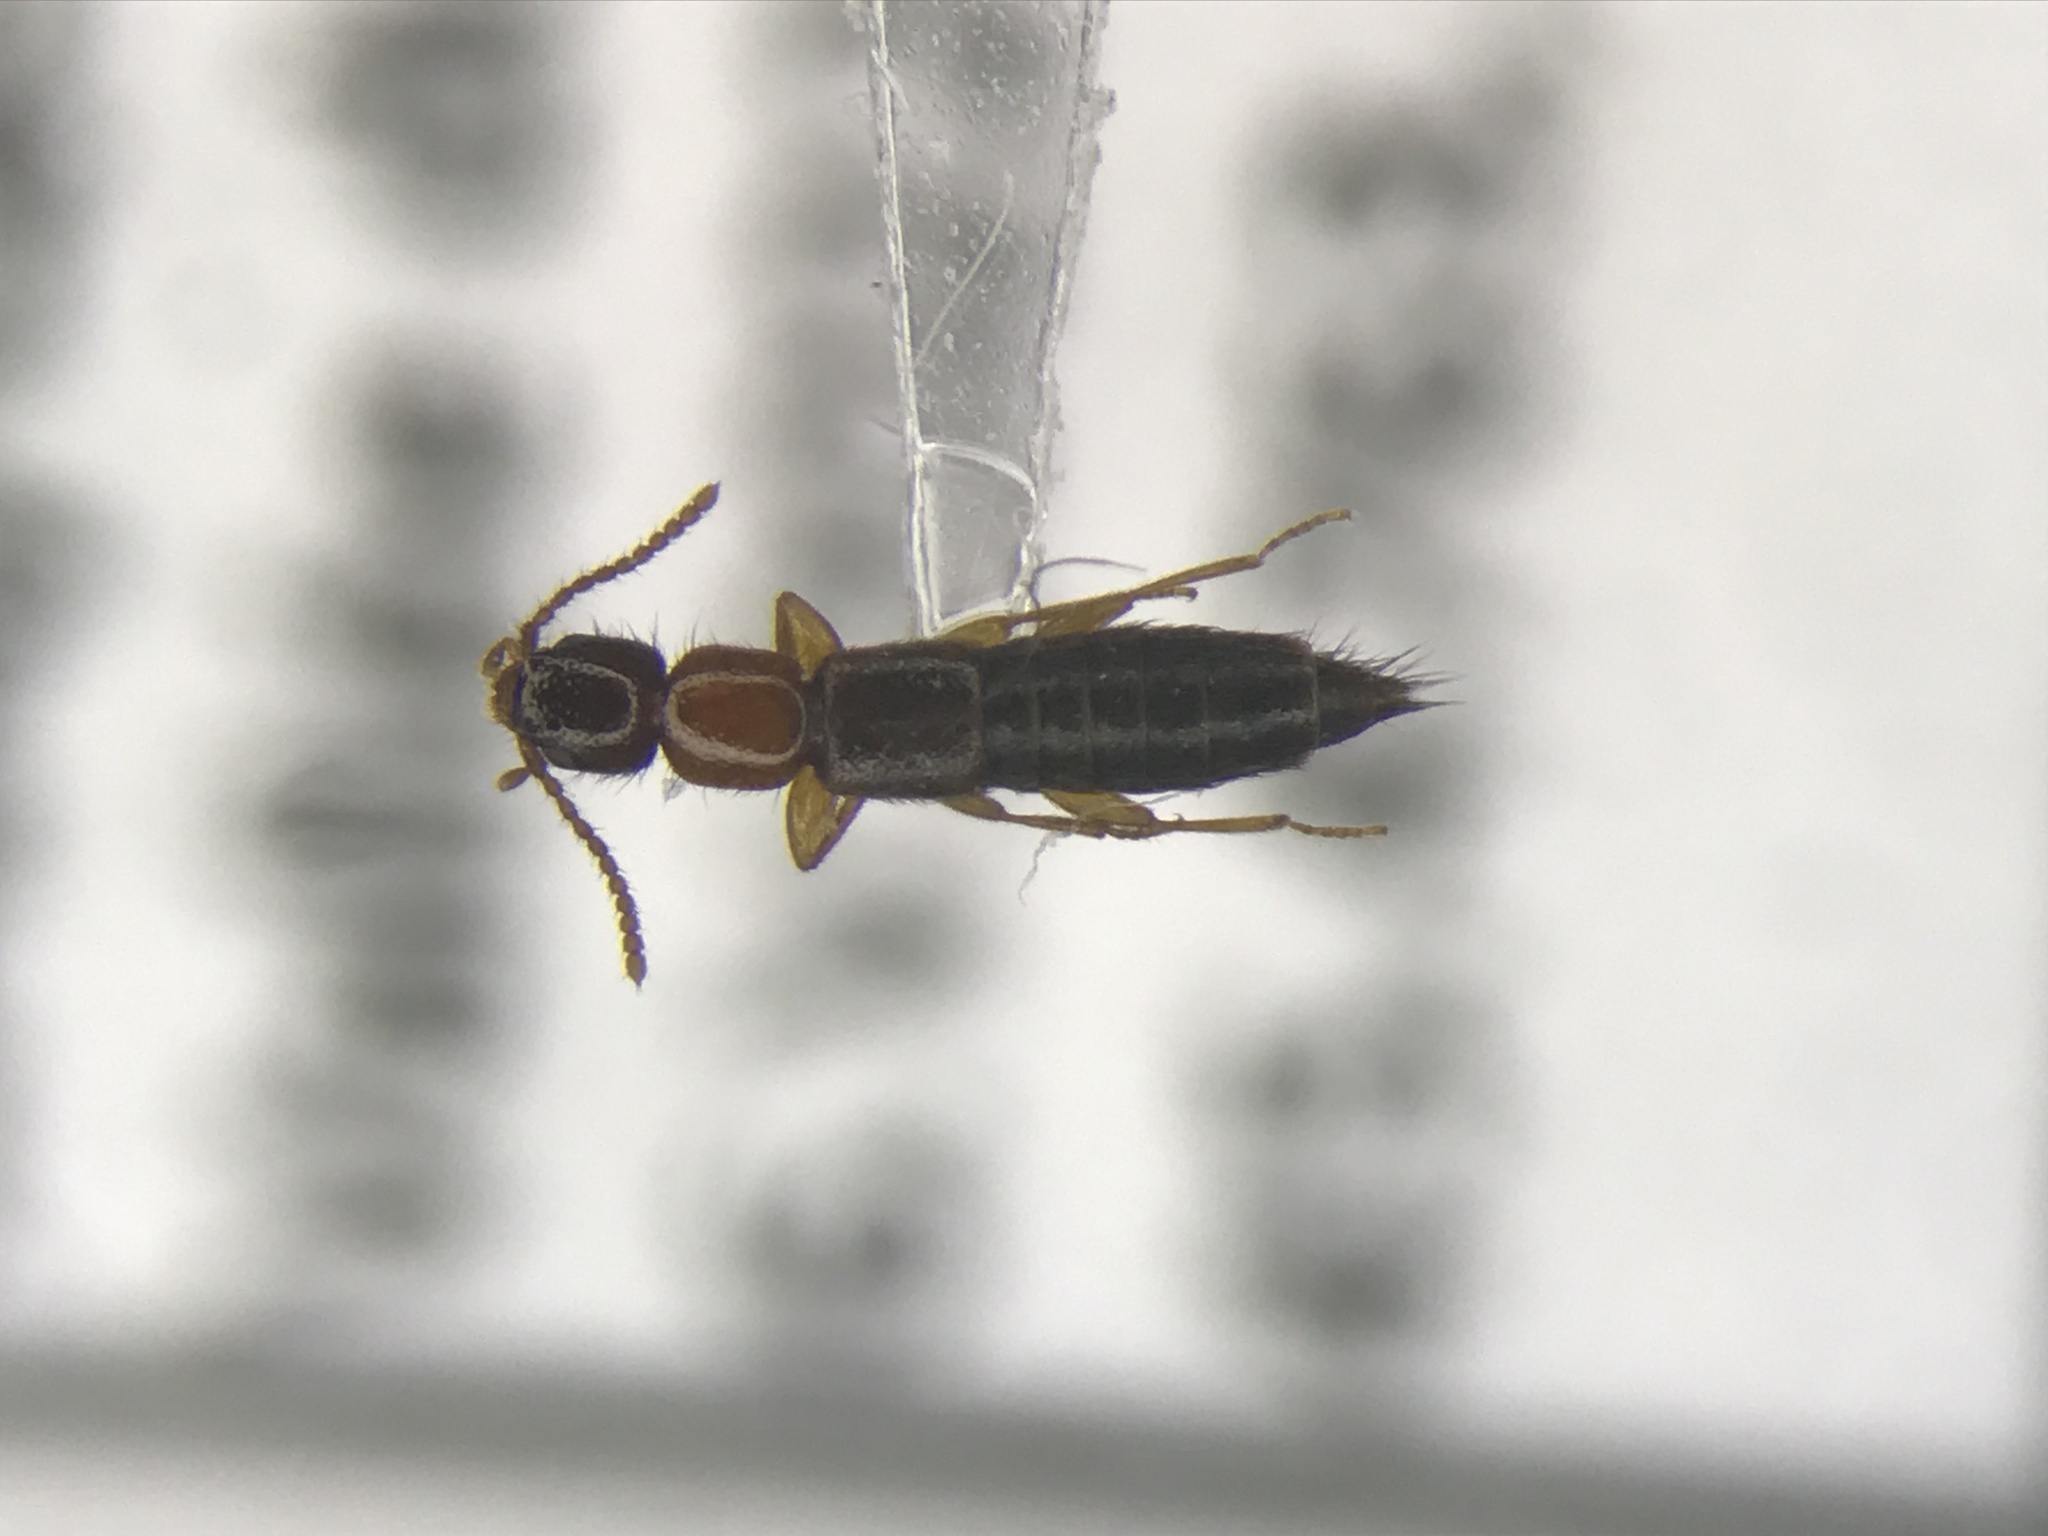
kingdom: Animalia
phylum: Arthropoda
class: Insecta
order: Coleoptera
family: Staphylinidae
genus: Sunius
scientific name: Sunius melanocephalus
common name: Rove beetle
